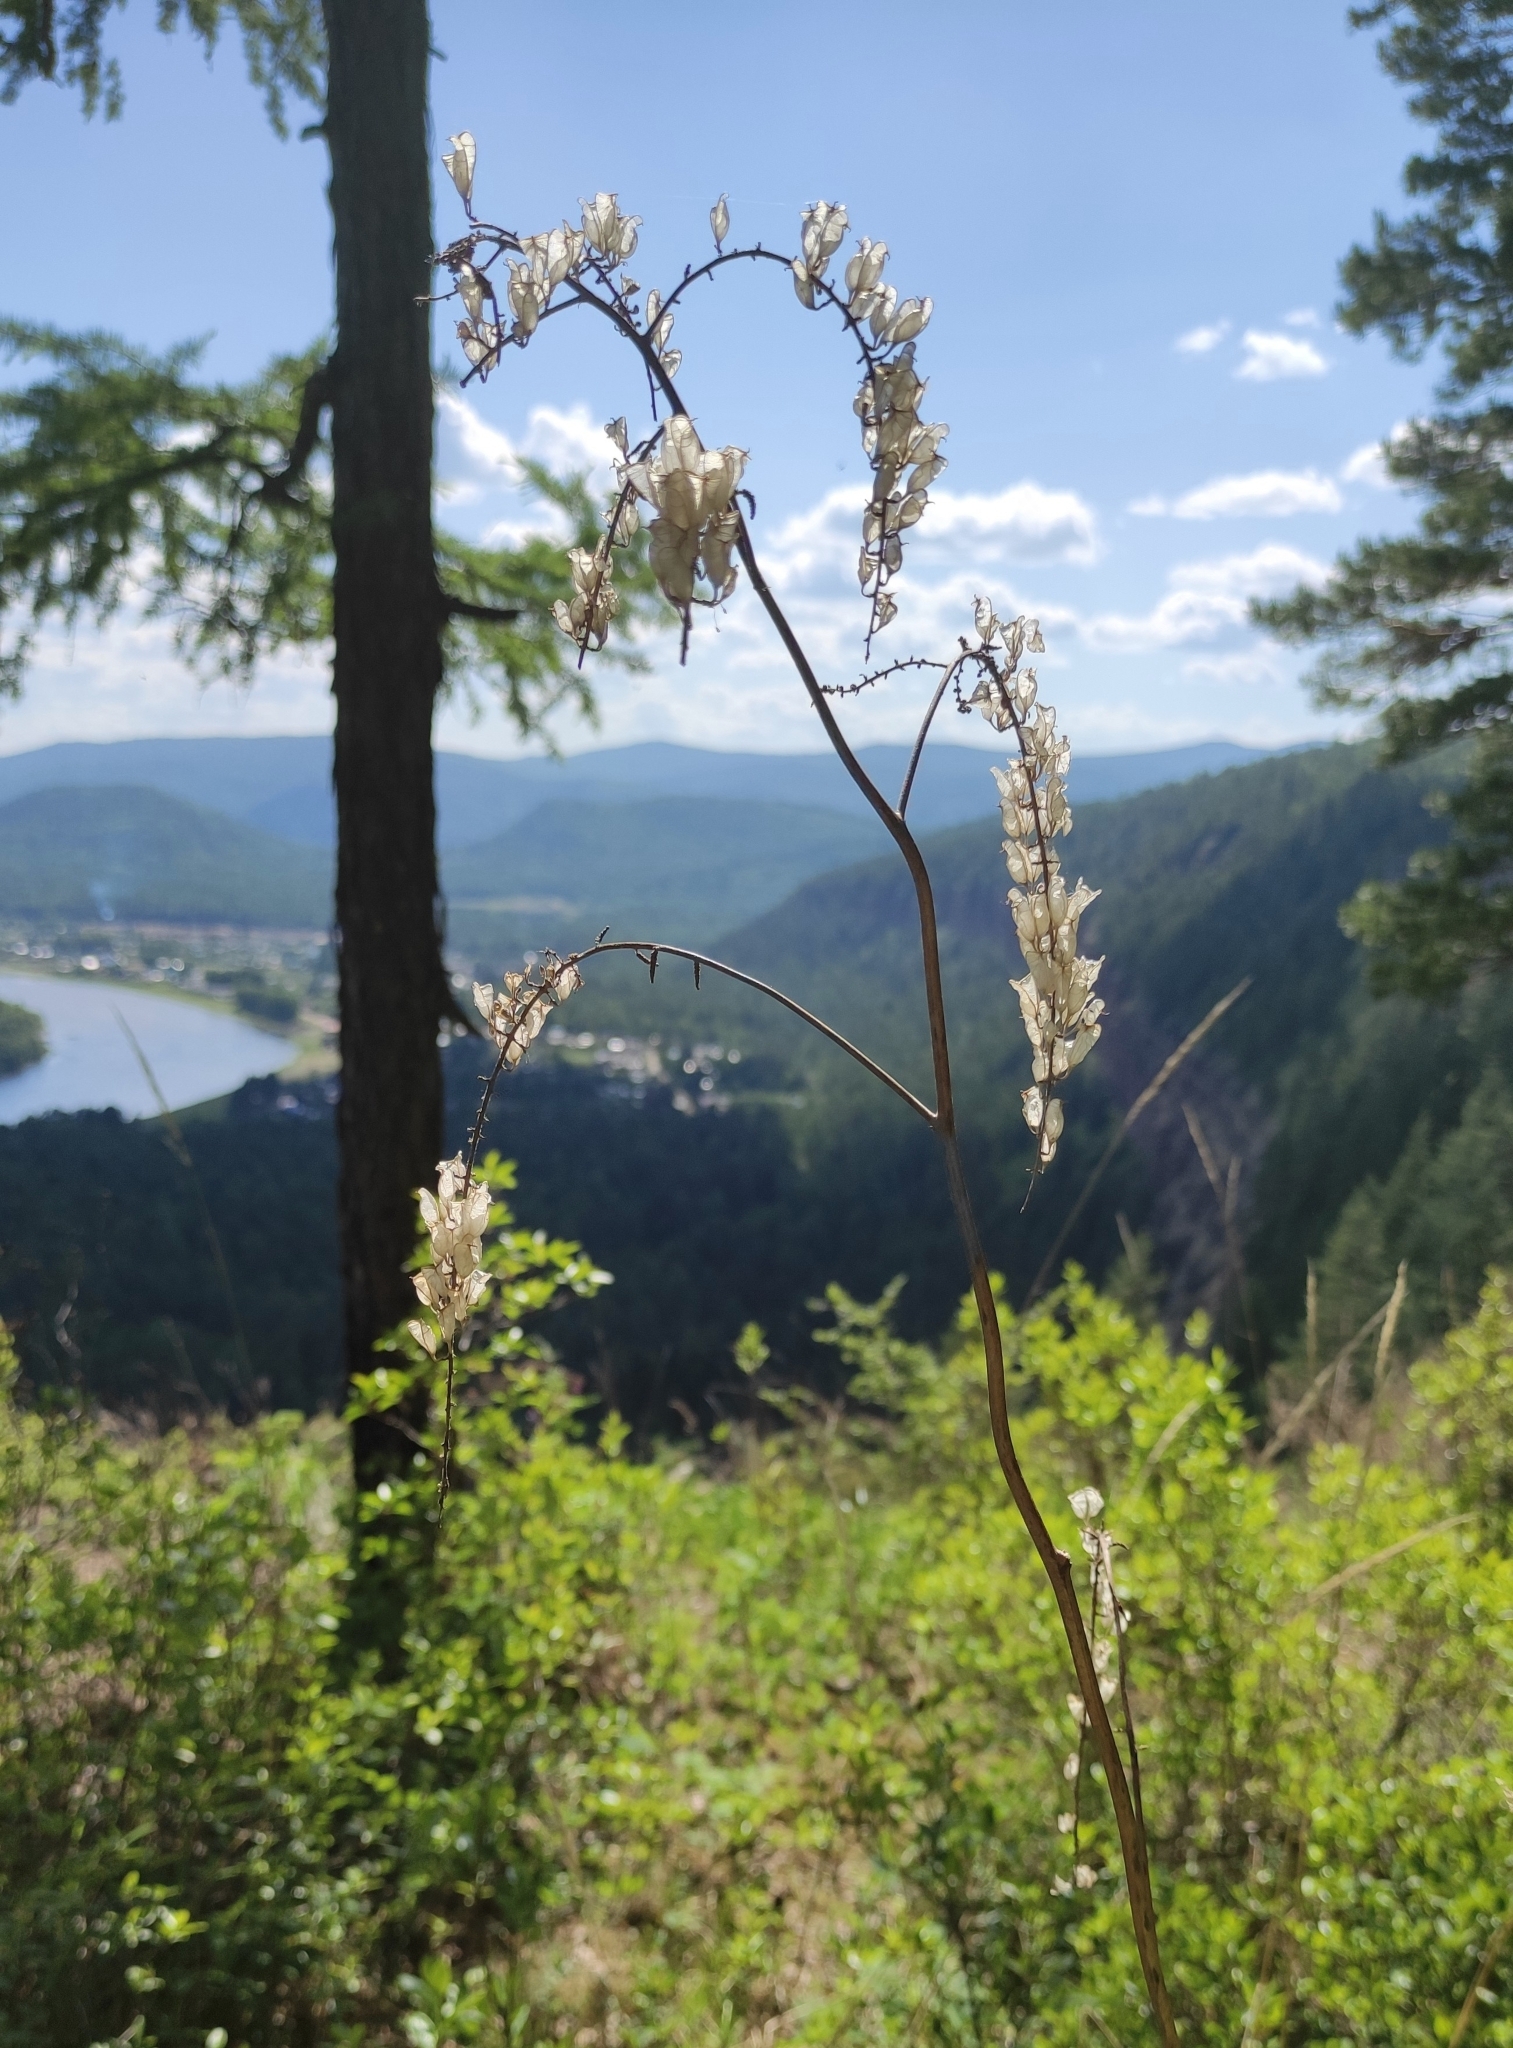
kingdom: Plantae
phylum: Tracheophyta
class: Magnoliopsida
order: Ranunculales
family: Ranunculaceae
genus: Actaea
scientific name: Actaea cimicifuga
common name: Chinese cimicifuga
